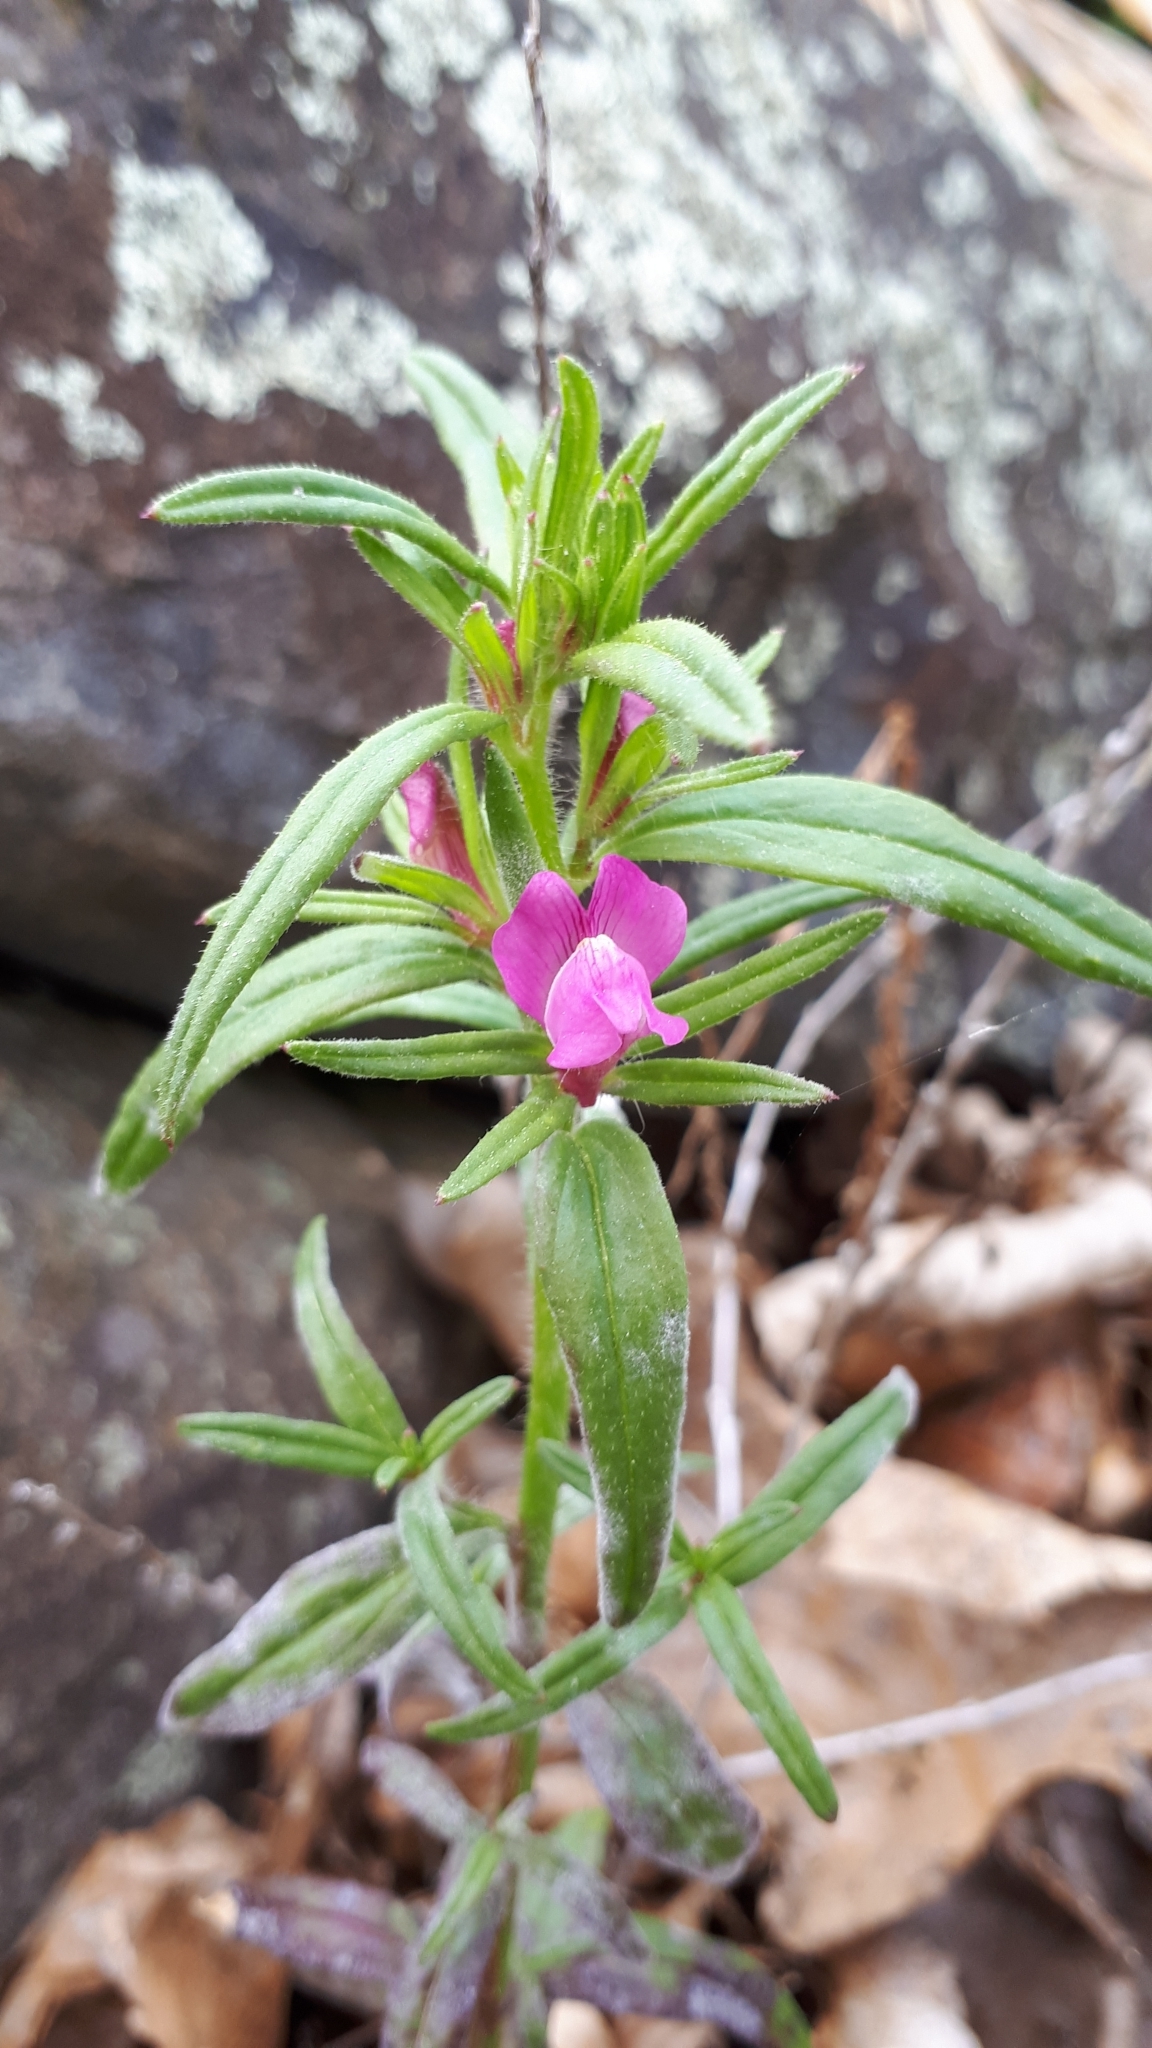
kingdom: Plantae
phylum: Tracheophyta
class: Magnoliopsida
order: Lamiales
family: Plantaginaceae
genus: Misopates
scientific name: Misopates orontium
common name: Weasel's-snout
